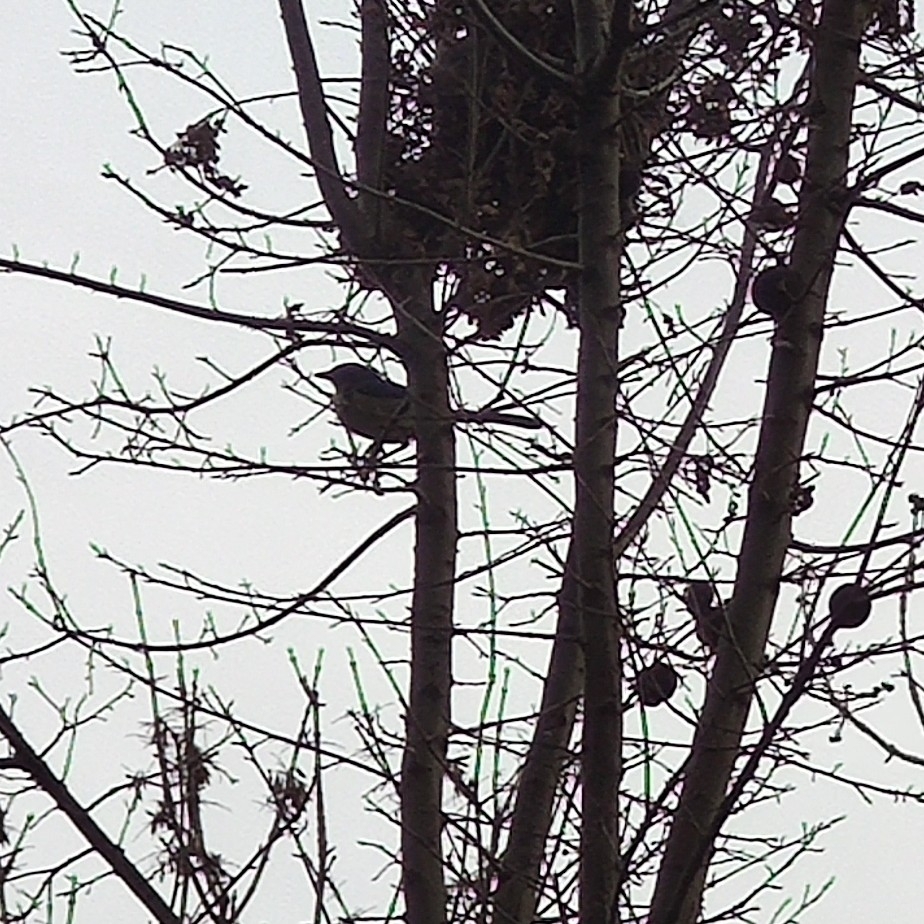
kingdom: Animalia
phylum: Chordata
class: Aves
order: Passeriformes
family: Corvidae
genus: Aphelocoma
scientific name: Aphelocoma californica
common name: California scrub-jay
